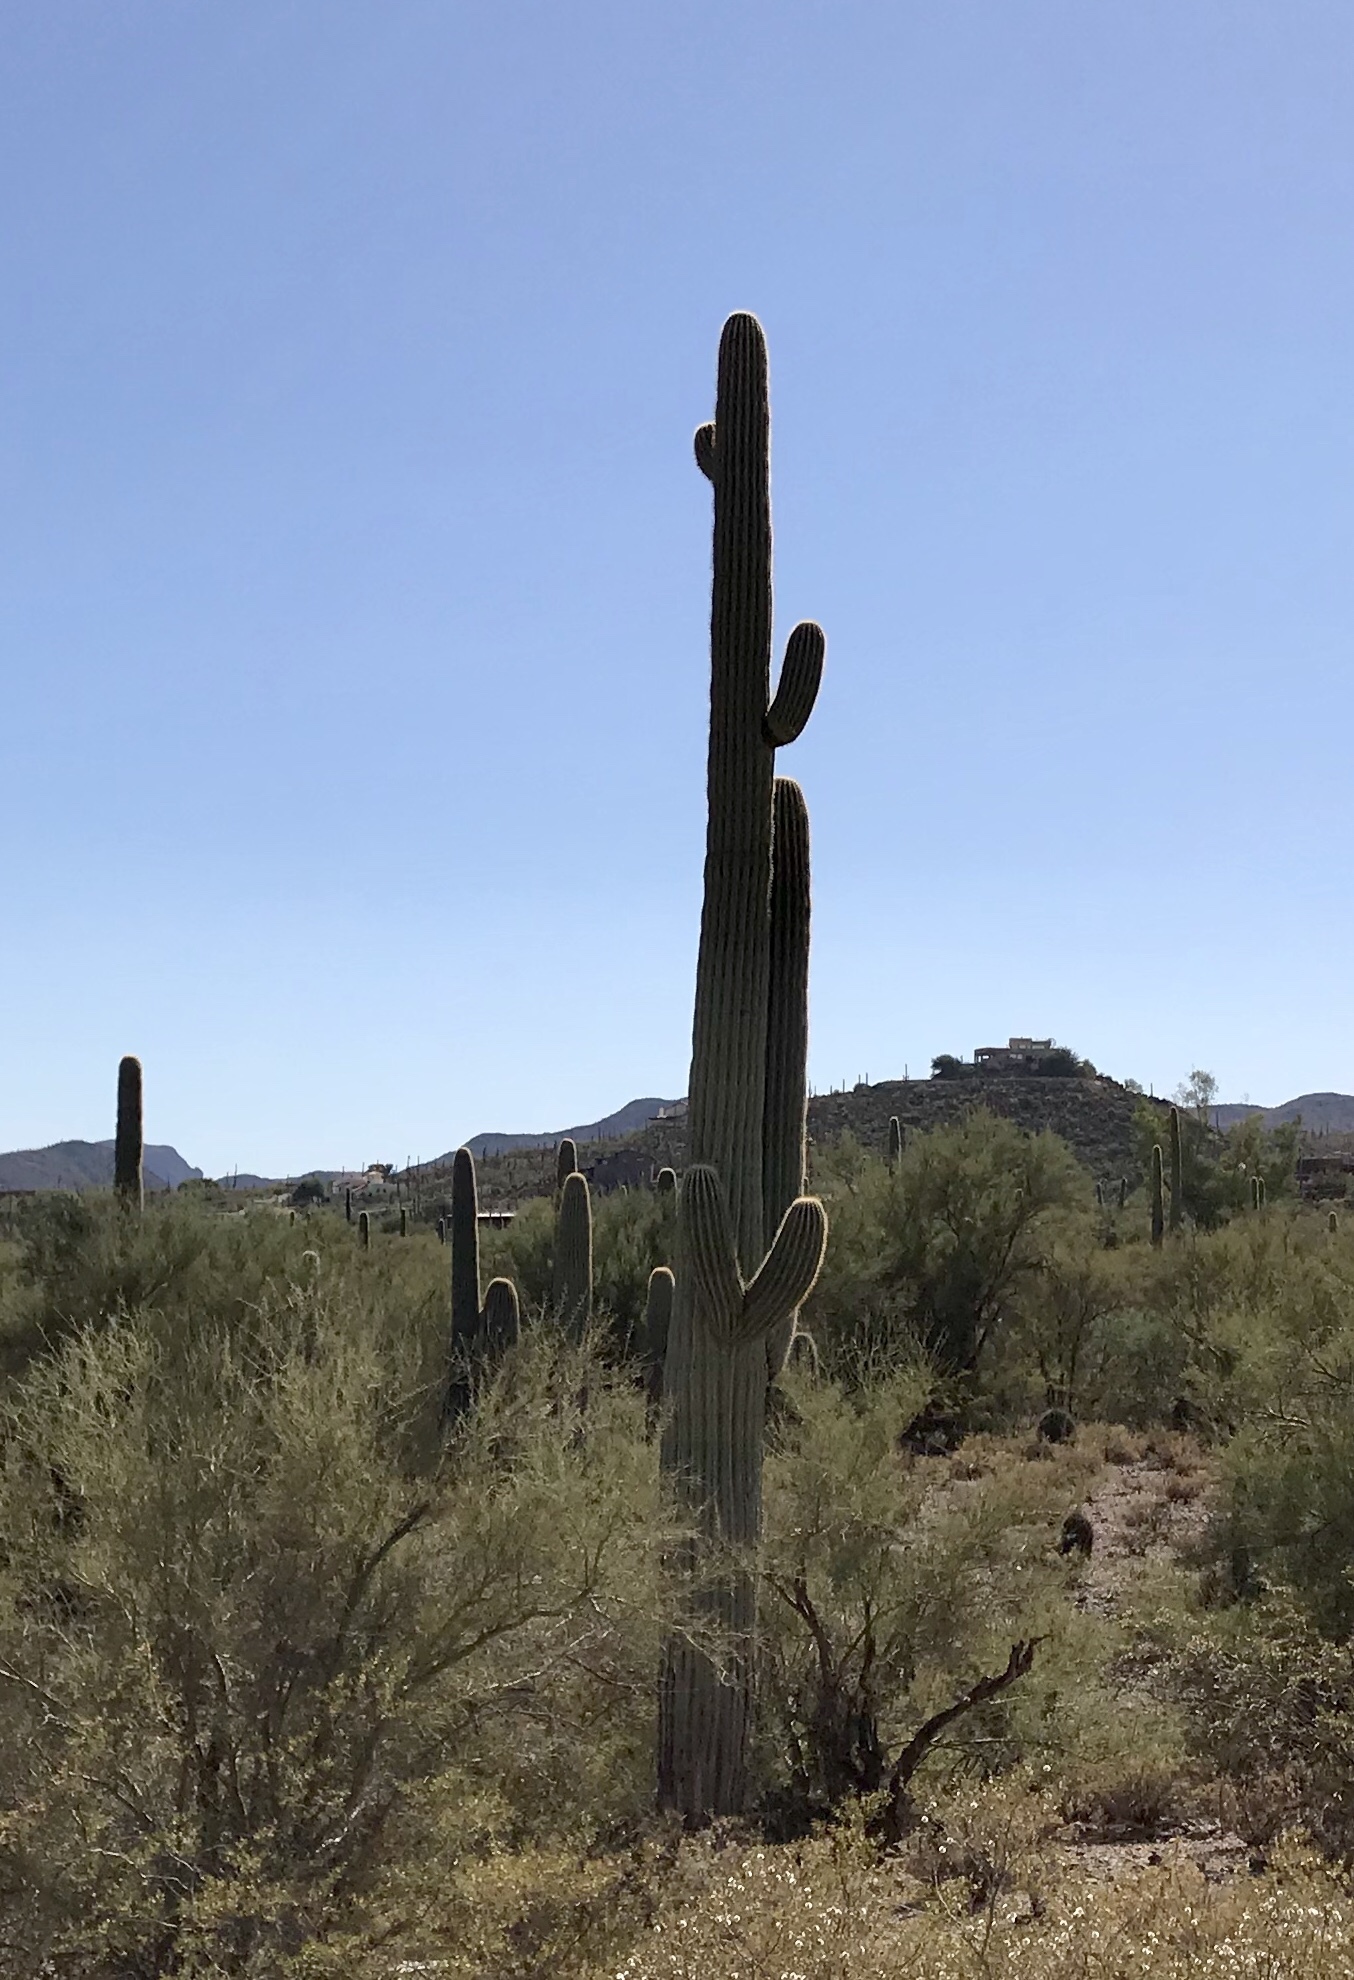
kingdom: Plantae
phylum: Tracheophyta
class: Magnoliopsida
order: Caryophyllales
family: Cactaceae
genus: Carnegiea
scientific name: Carnegiea gigantea
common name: Saguaro
